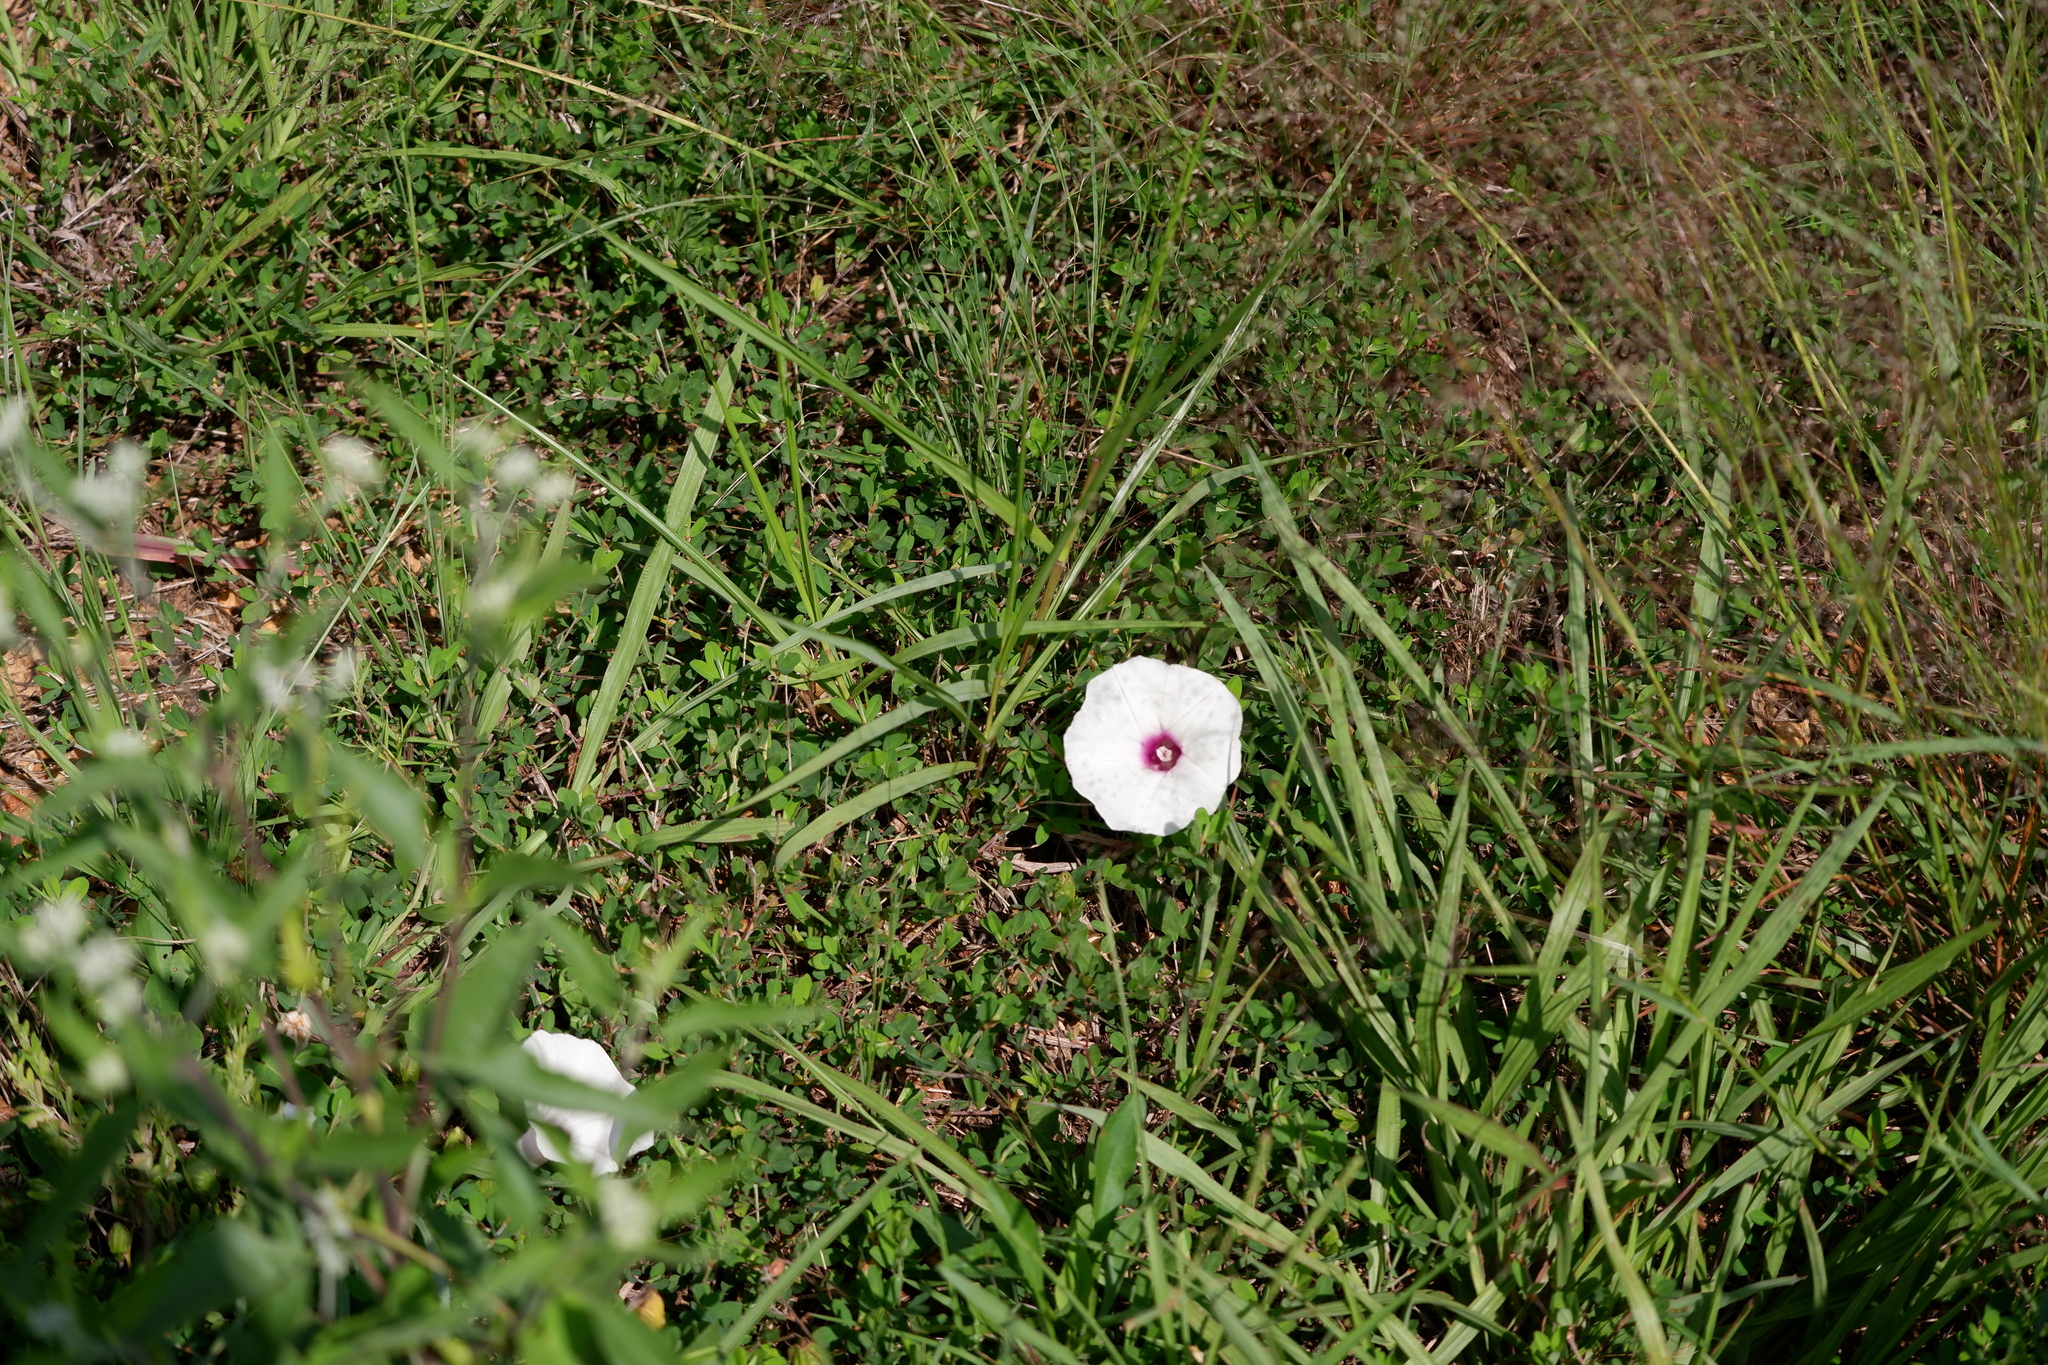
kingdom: Plantae
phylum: Tracheophyta
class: Magnoliopsida
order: Solanales
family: Convolvulaceae
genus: Ipomoea
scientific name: Ipomoea pandurata
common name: Man-of-the-earth
